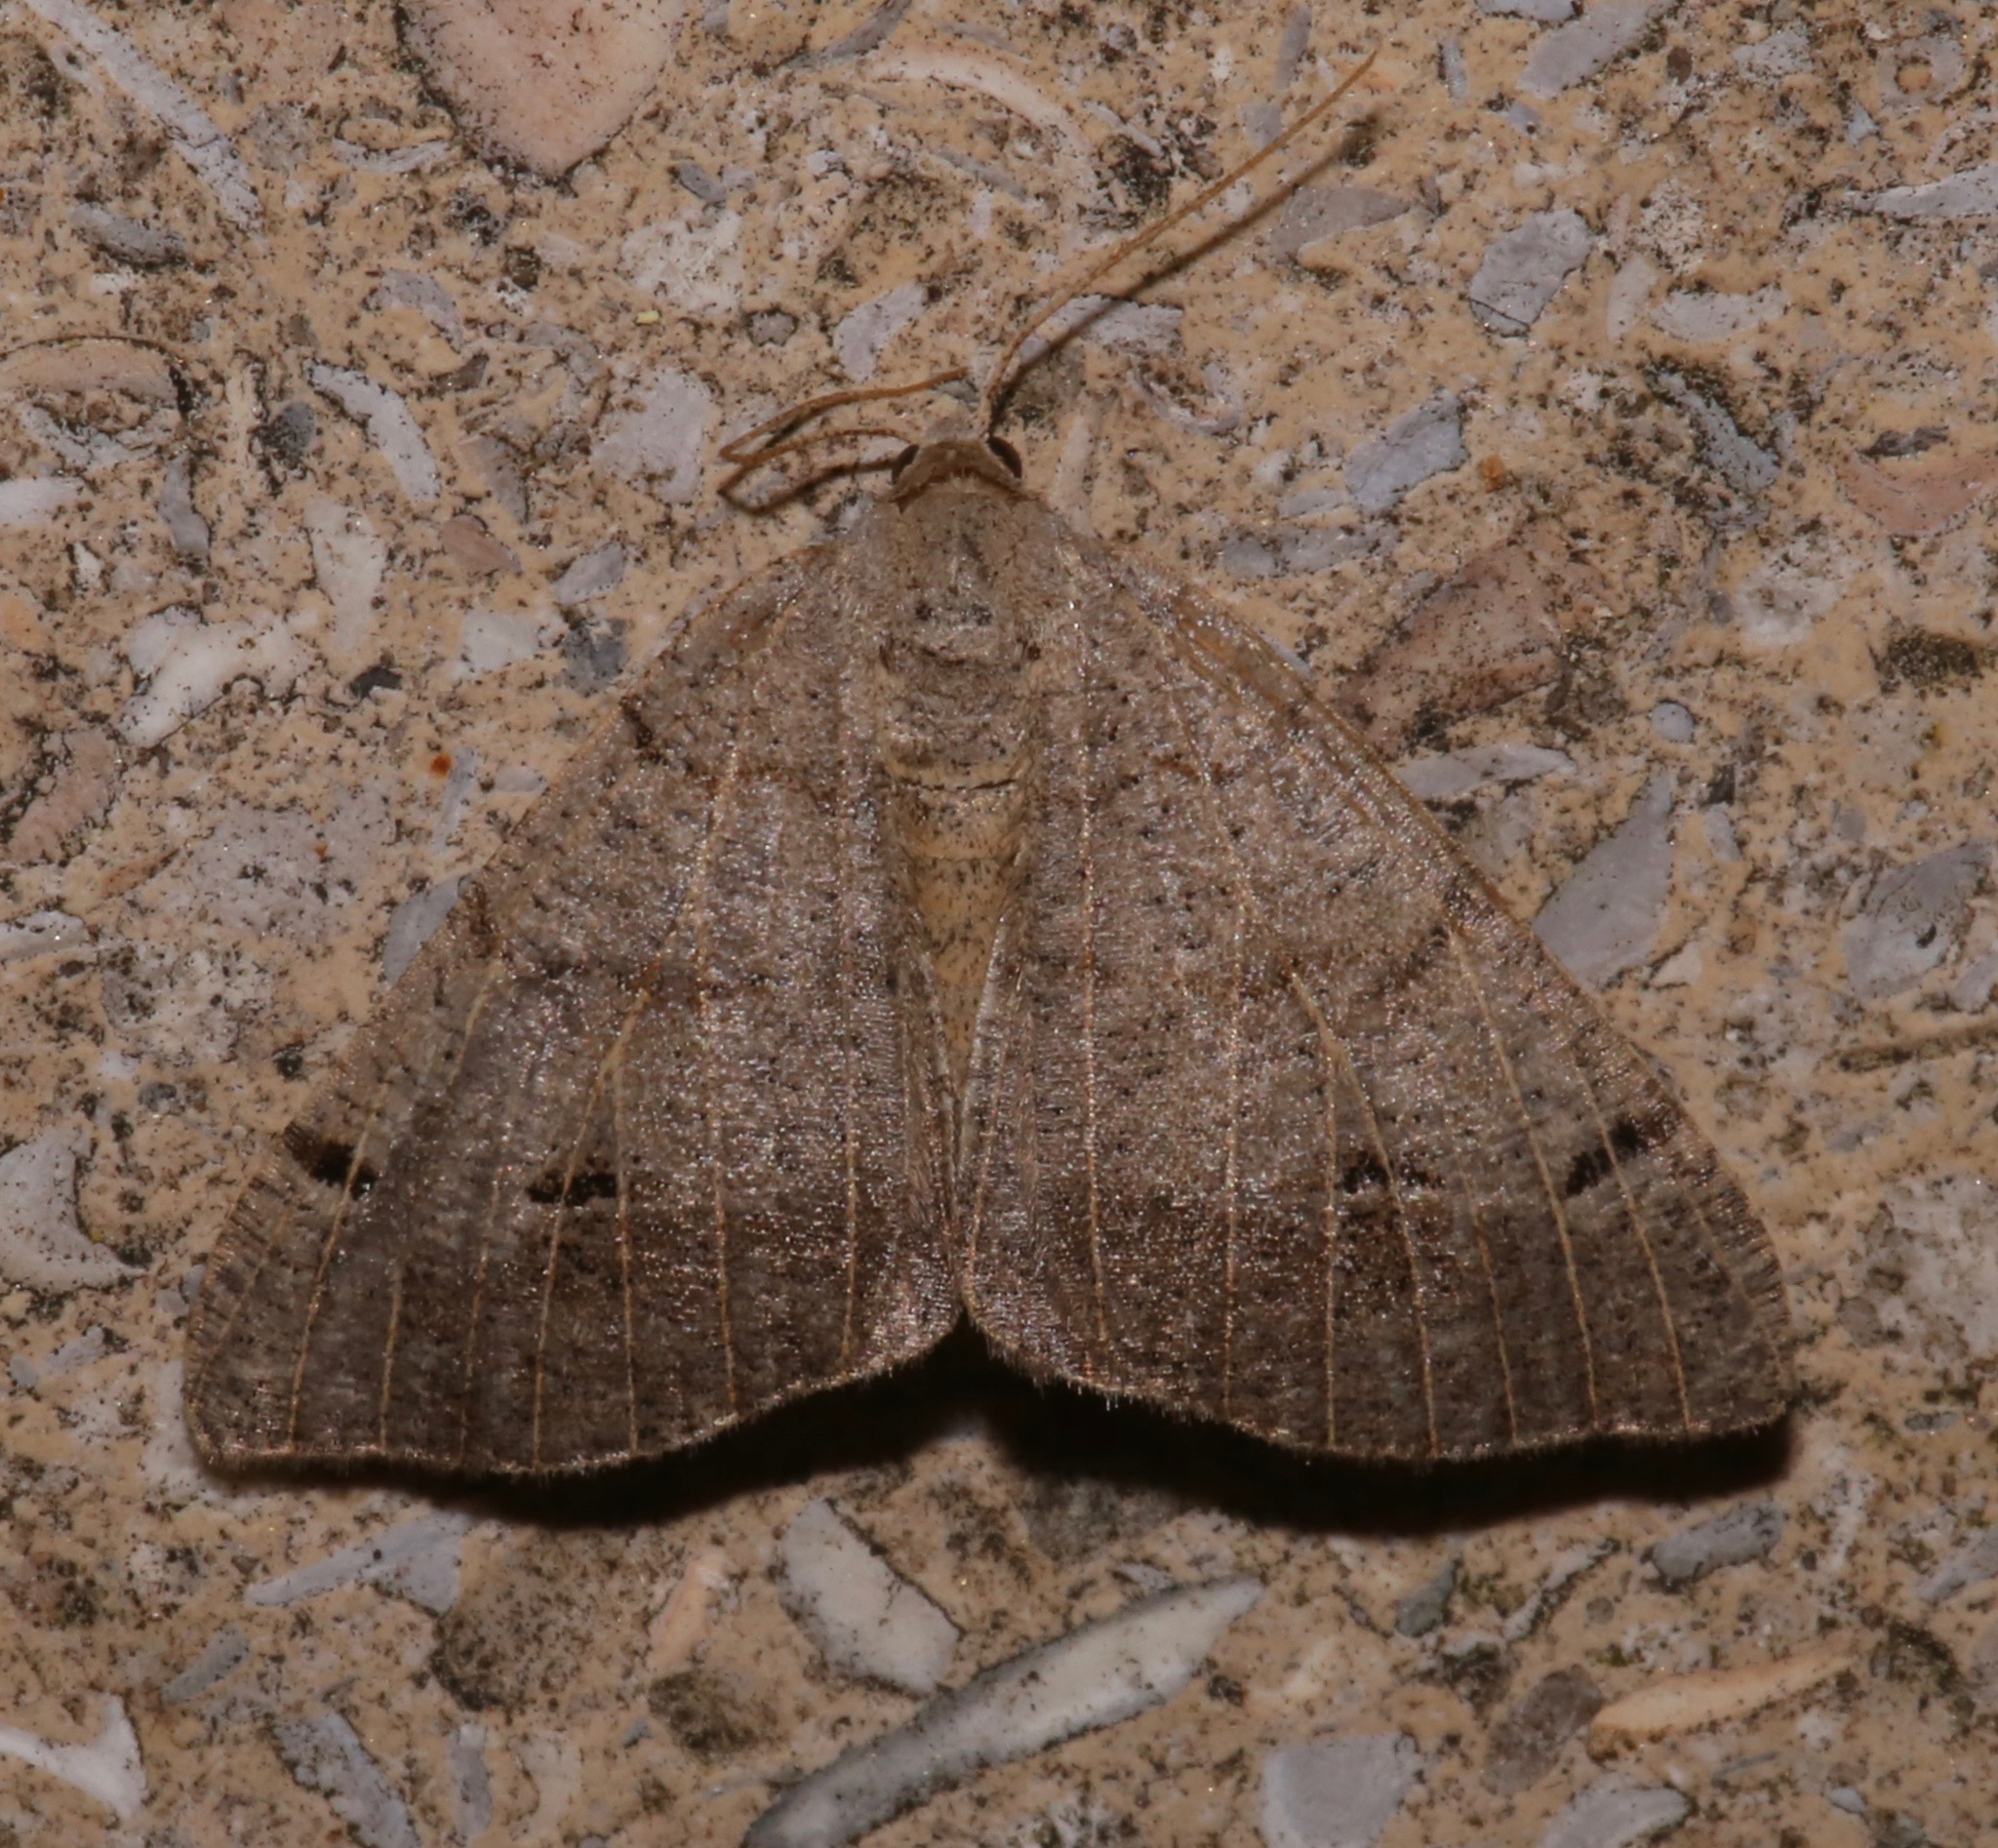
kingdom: Animalia
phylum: Arthropoda
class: Insecta
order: Lepidoptera
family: Geometridae
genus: Isturgia
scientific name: Isturgia dislocaria
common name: Pale-viened enconista
